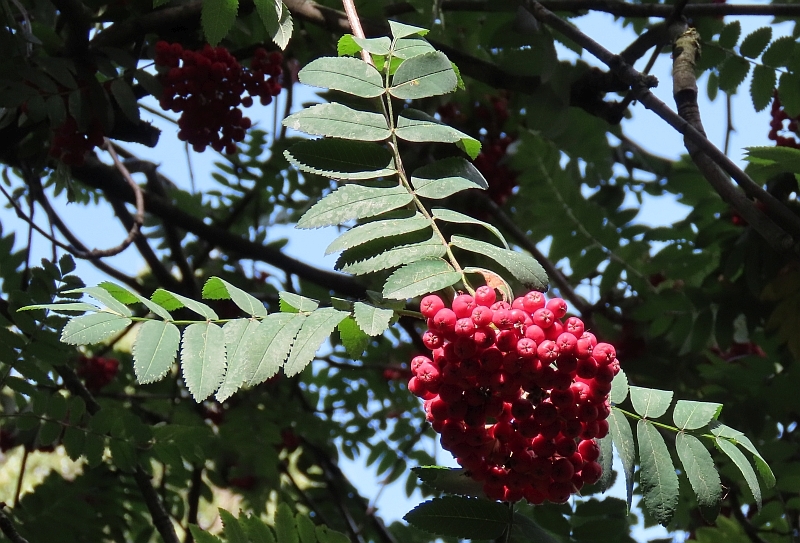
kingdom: Plantae
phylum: Tracheophyta
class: Magnoliopsida
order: Rosales
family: Rosaceae
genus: Sorbus
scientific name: Sorbus aucuparia
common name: Rowan
